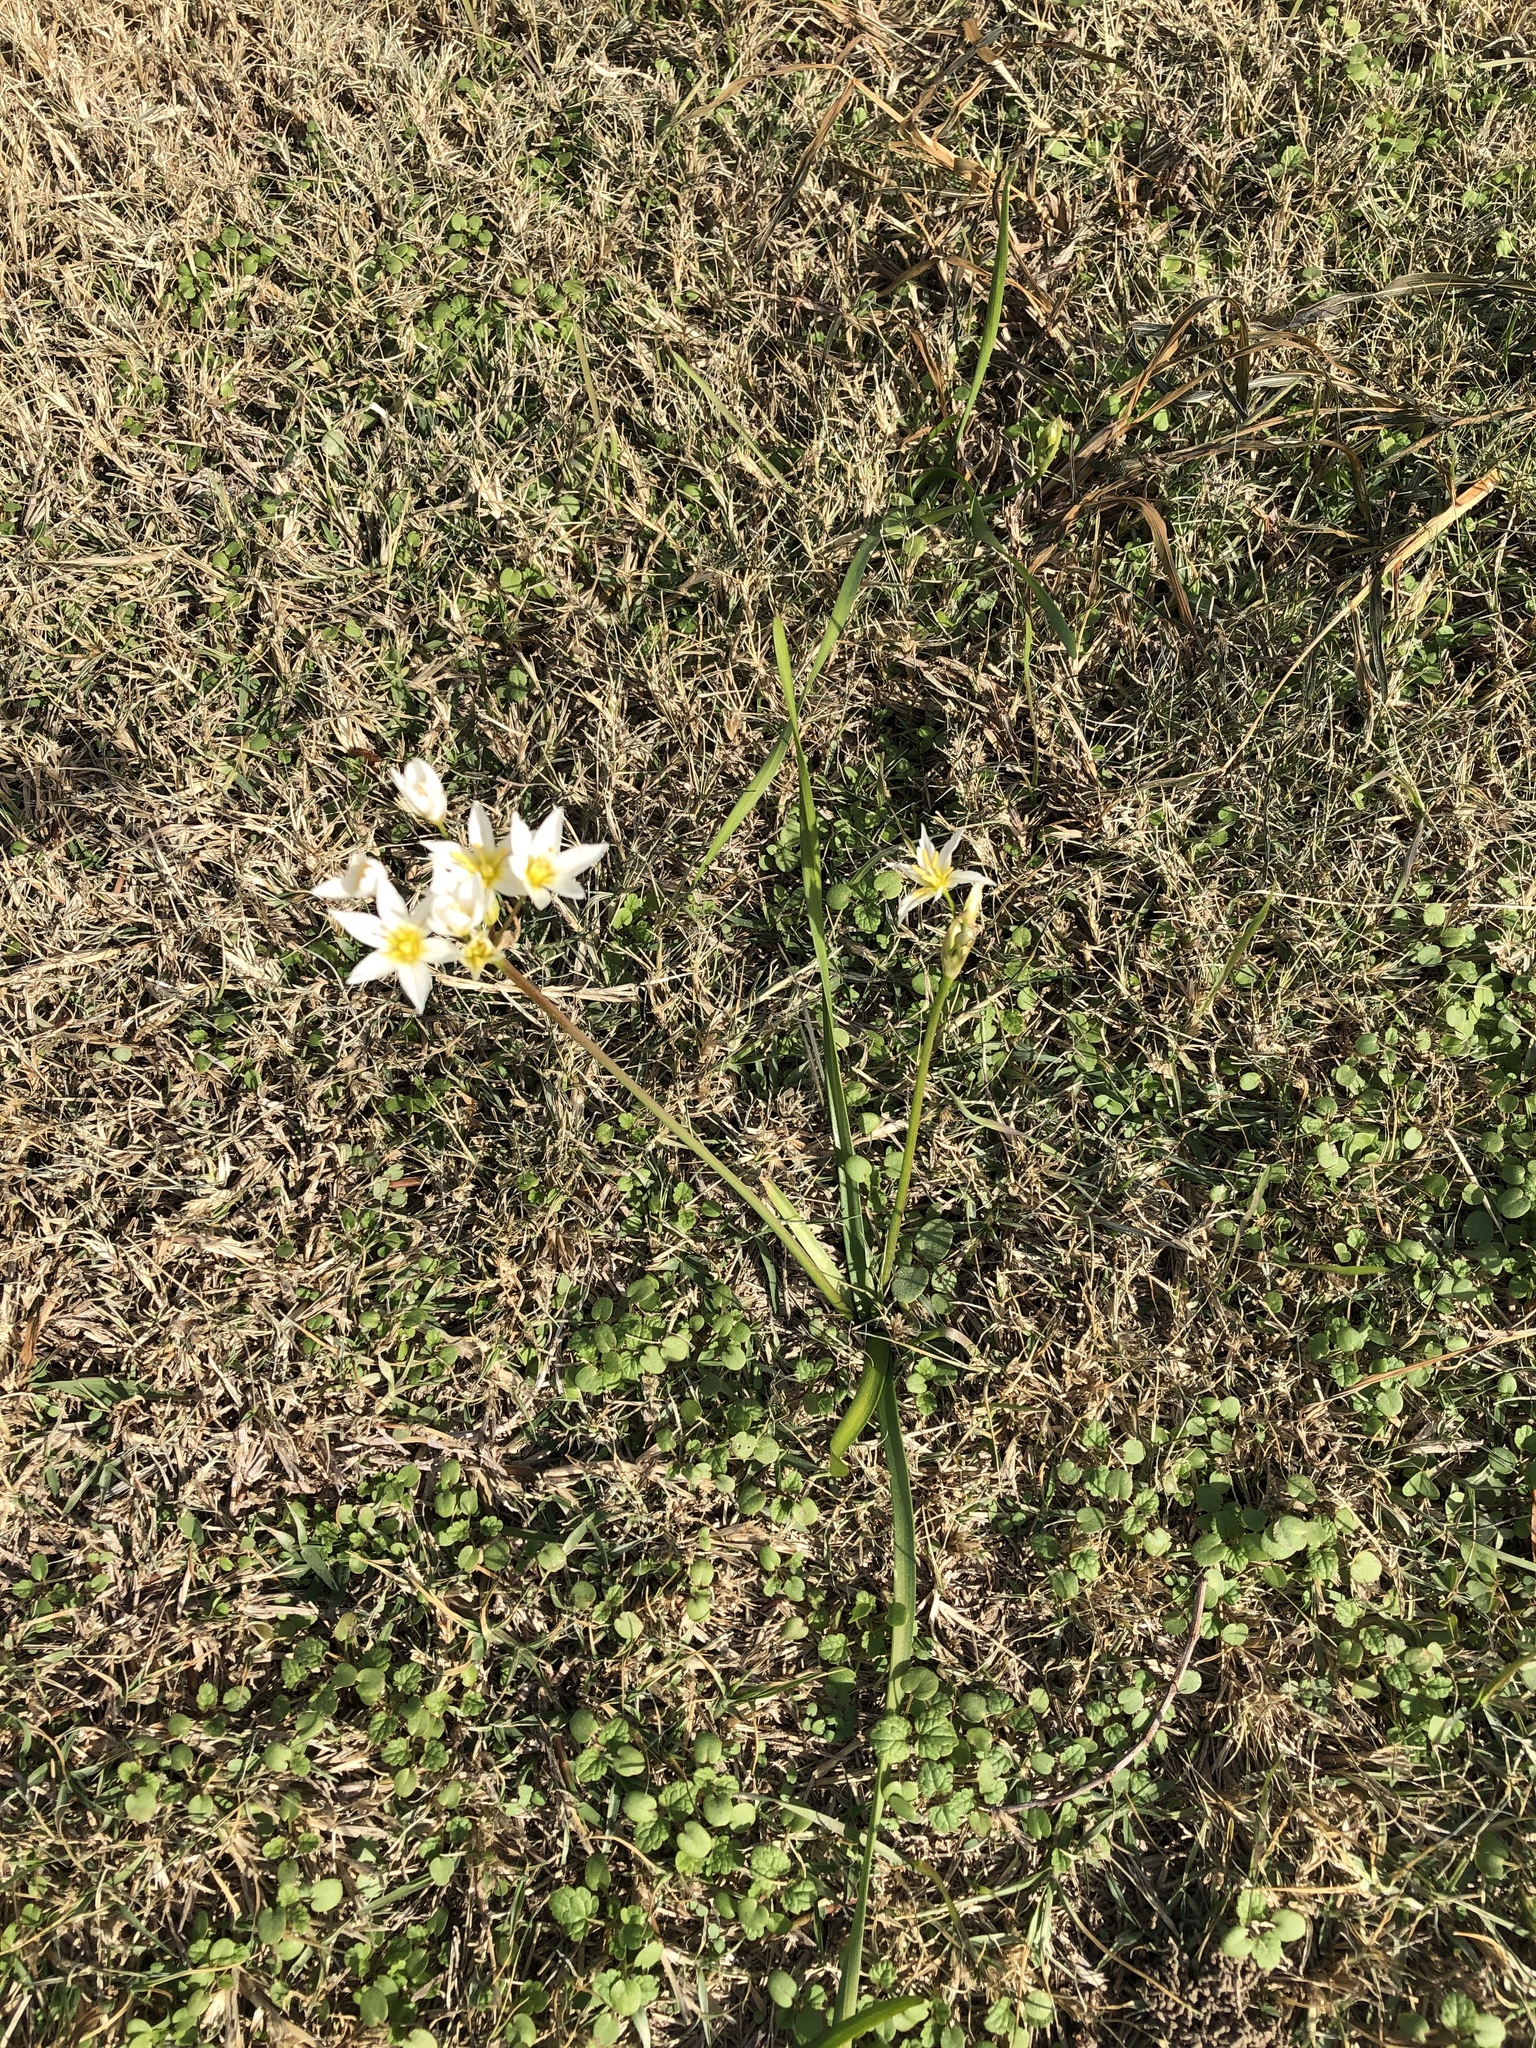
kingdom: Plantae
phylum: Tracheophyta
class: Liliopsida
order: Asparagales
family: Amaryllidaceae
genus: Nothoscordum
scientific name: Nothoscordum bivalve
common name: Crow-poison
